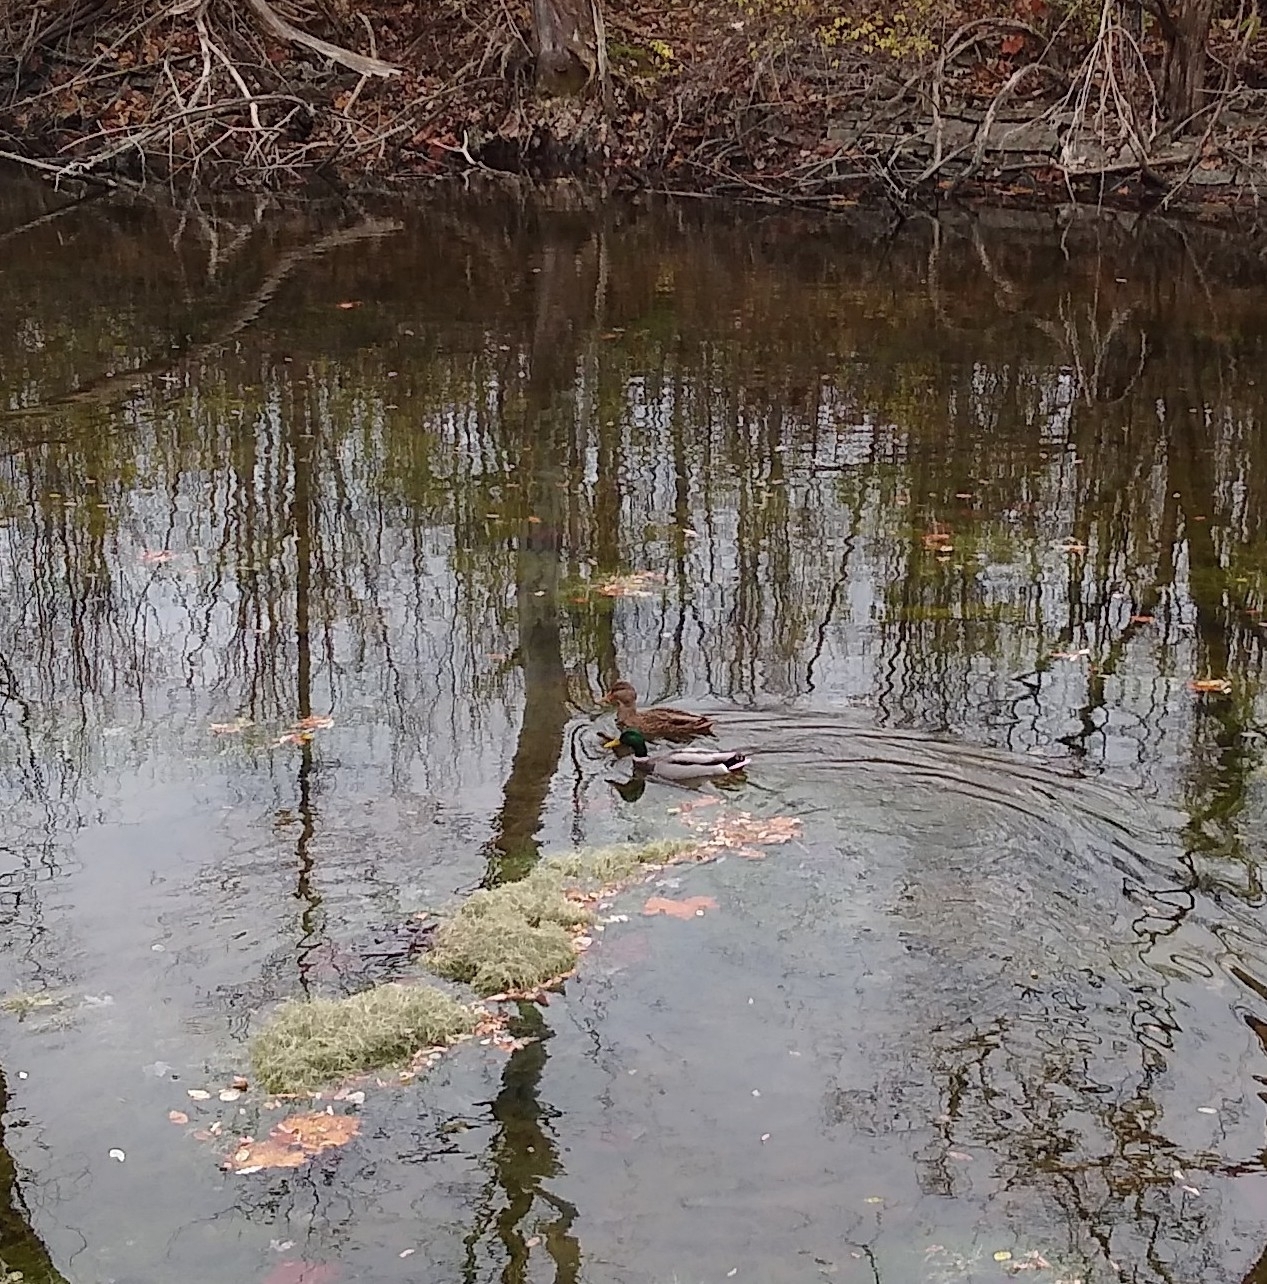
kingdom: Animalia
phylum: Chordata
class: Aves
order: Anseriformes
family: Anatidae
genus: Anas
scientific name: Anas platyrhynchos
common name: Mallard
